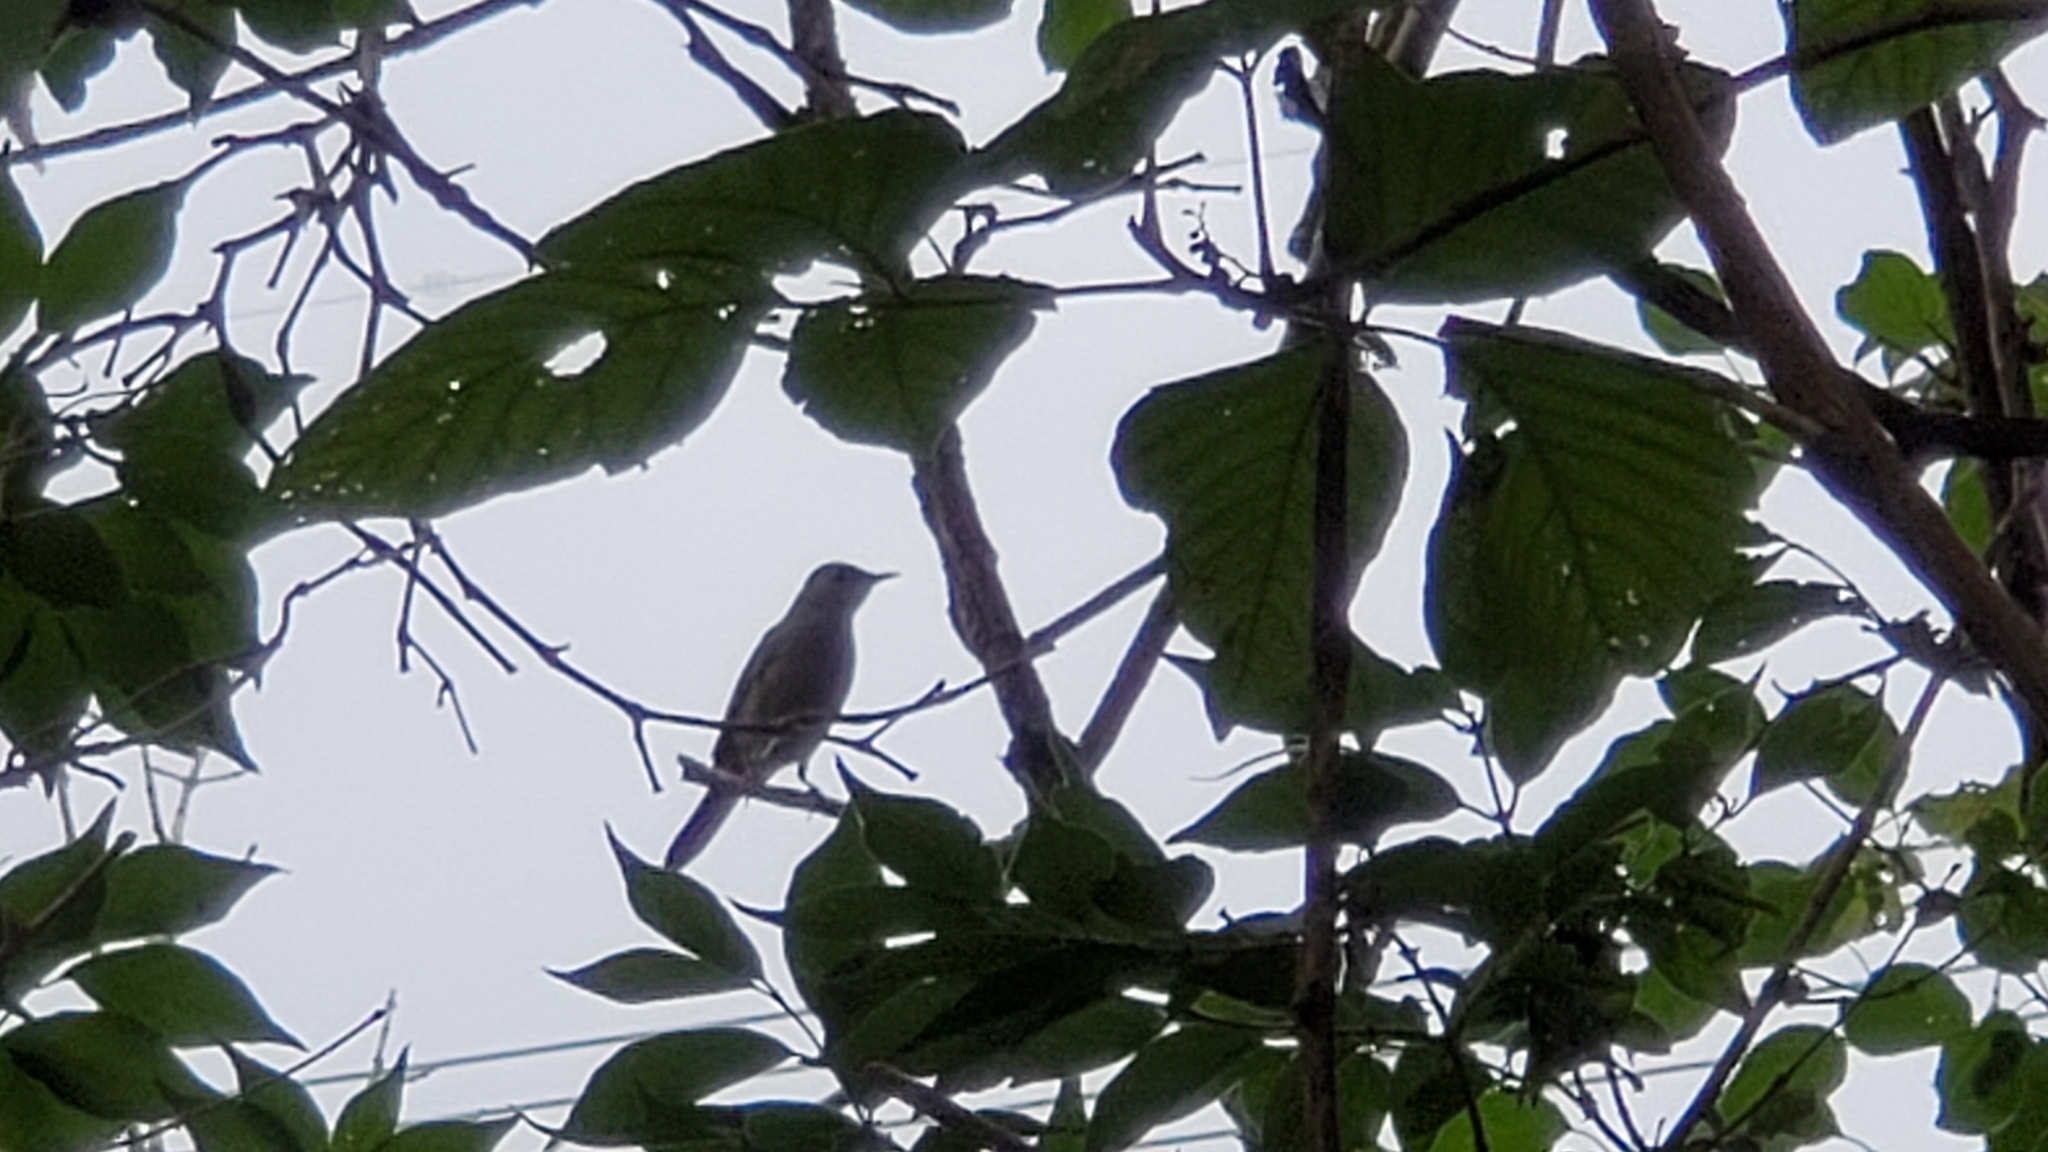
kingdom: Animalia
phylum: Chordata
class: Aves
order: Passeriformes
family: Mimidae
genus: Dumetella
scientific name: Dumetella carolinensis
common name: Gray catbird
